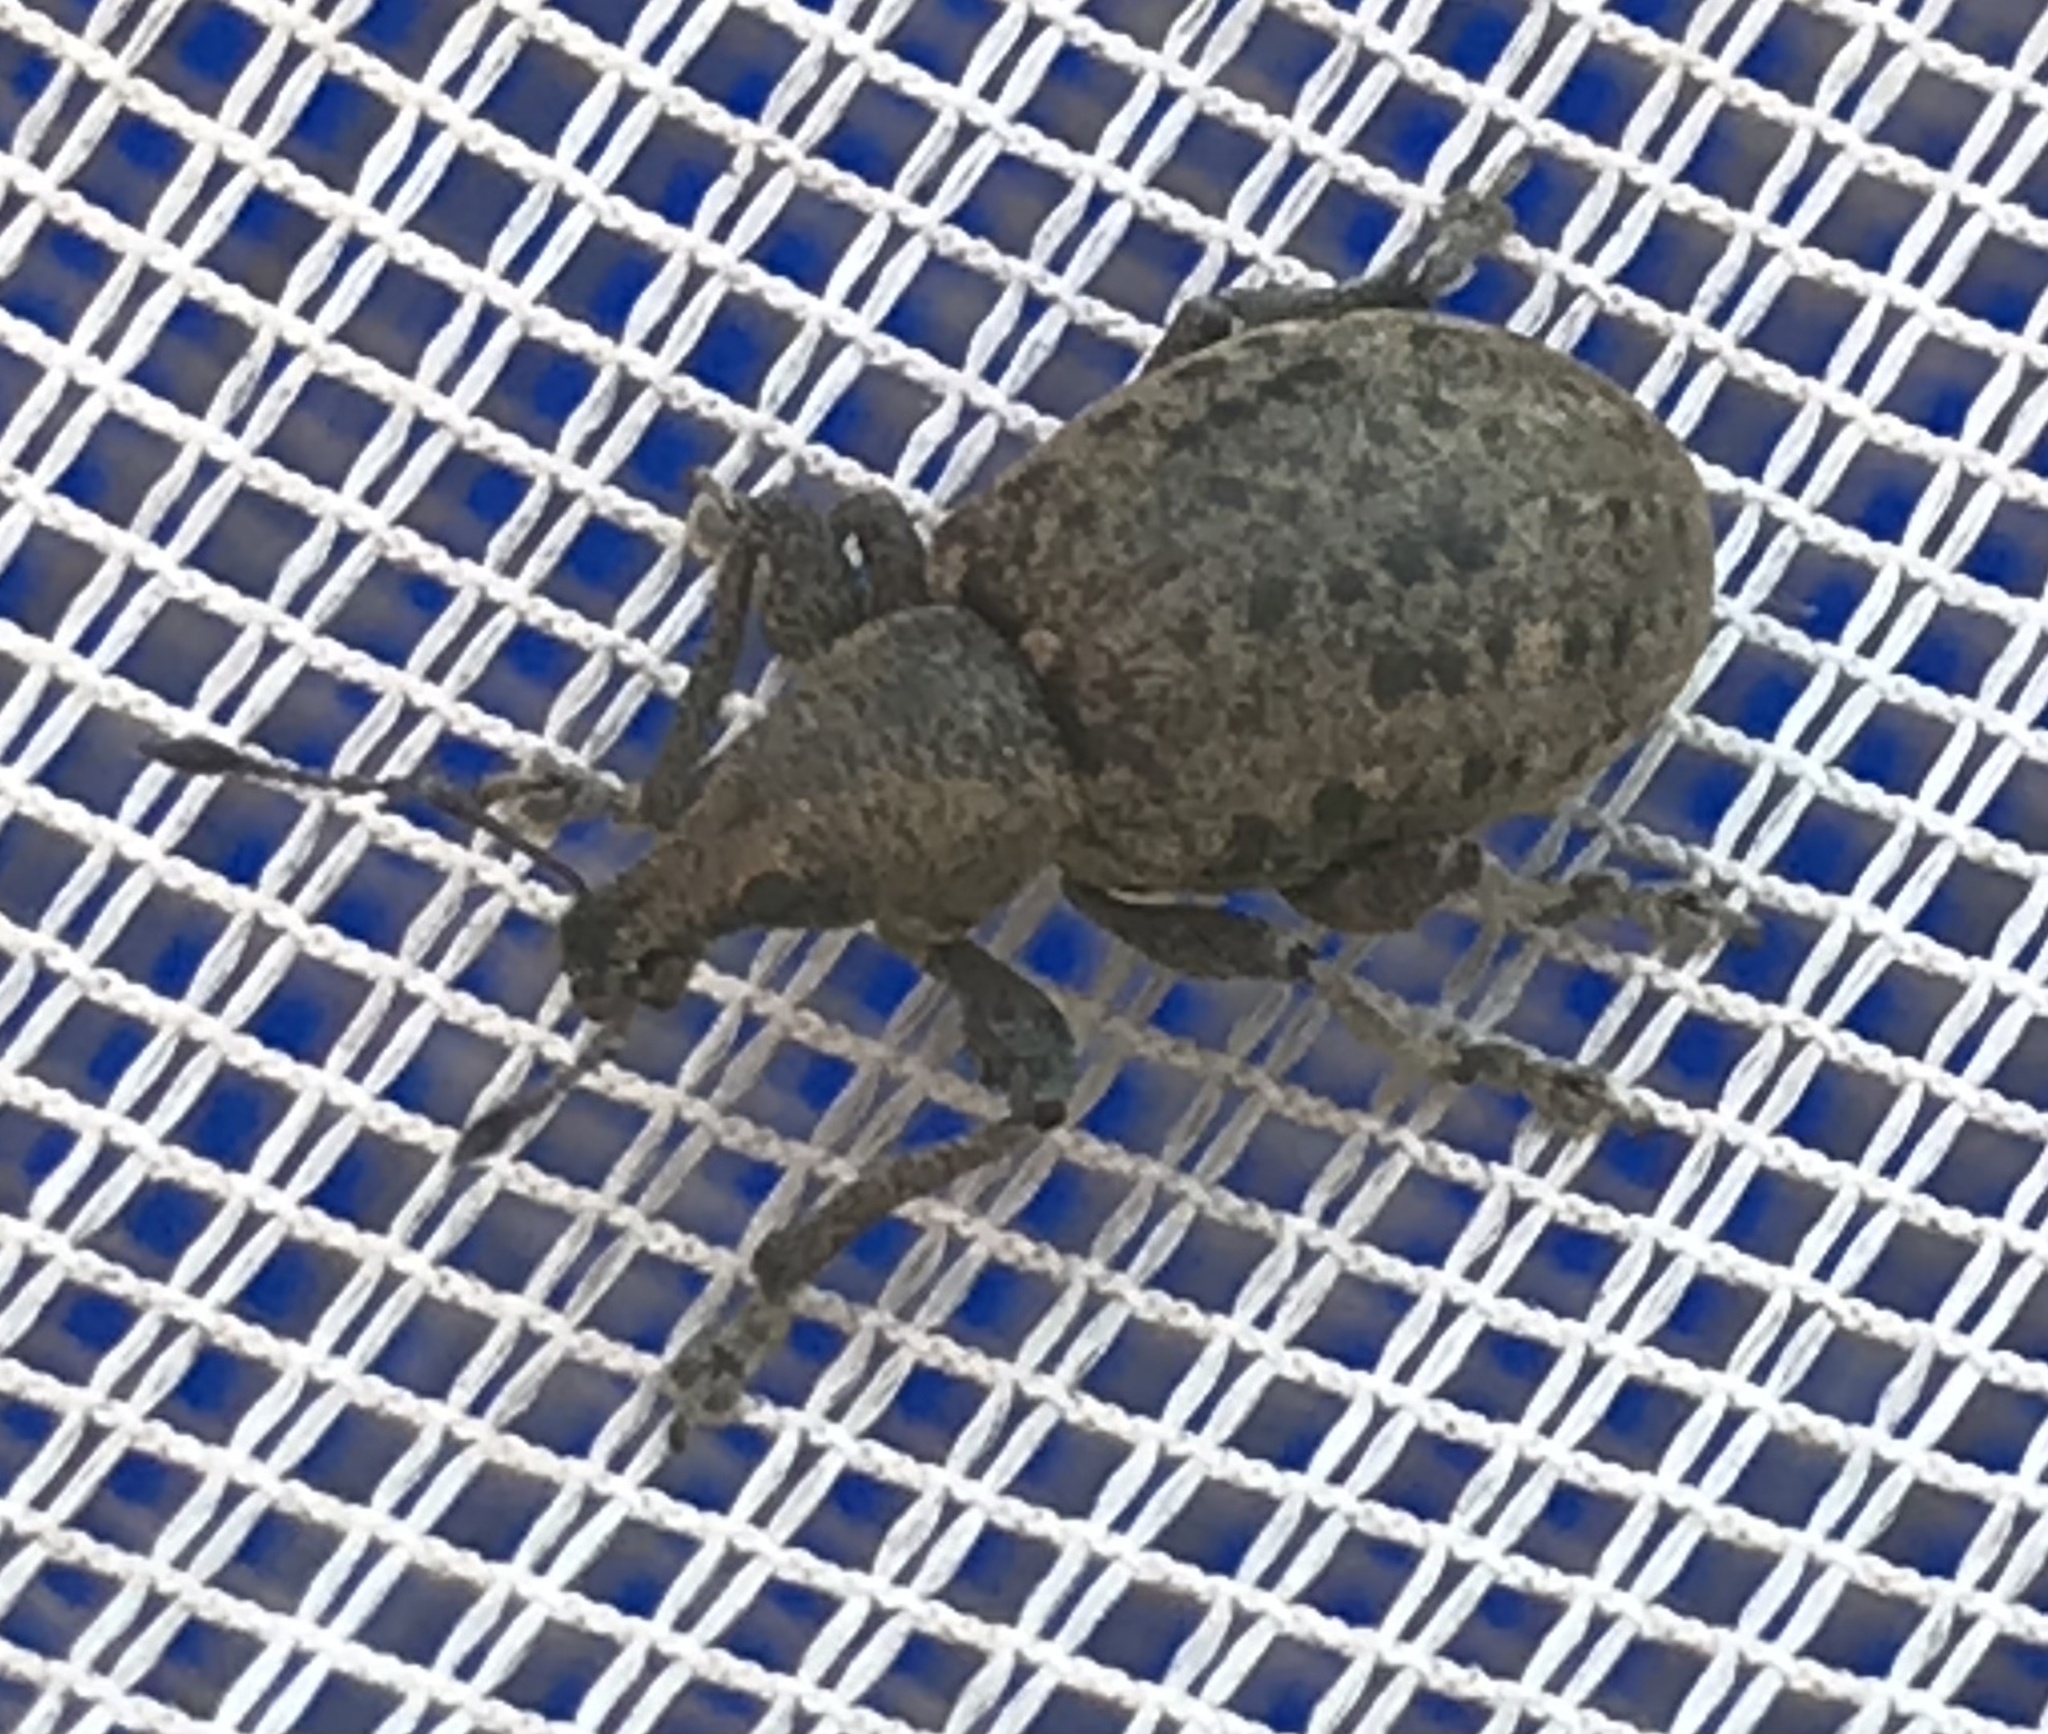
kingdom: Animalia
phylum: Arthropoda
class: Insecta
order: Coleoptera
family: Curculionidae
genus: Liophloeus
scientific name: Liophloeus tessulatus
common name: Weevil
